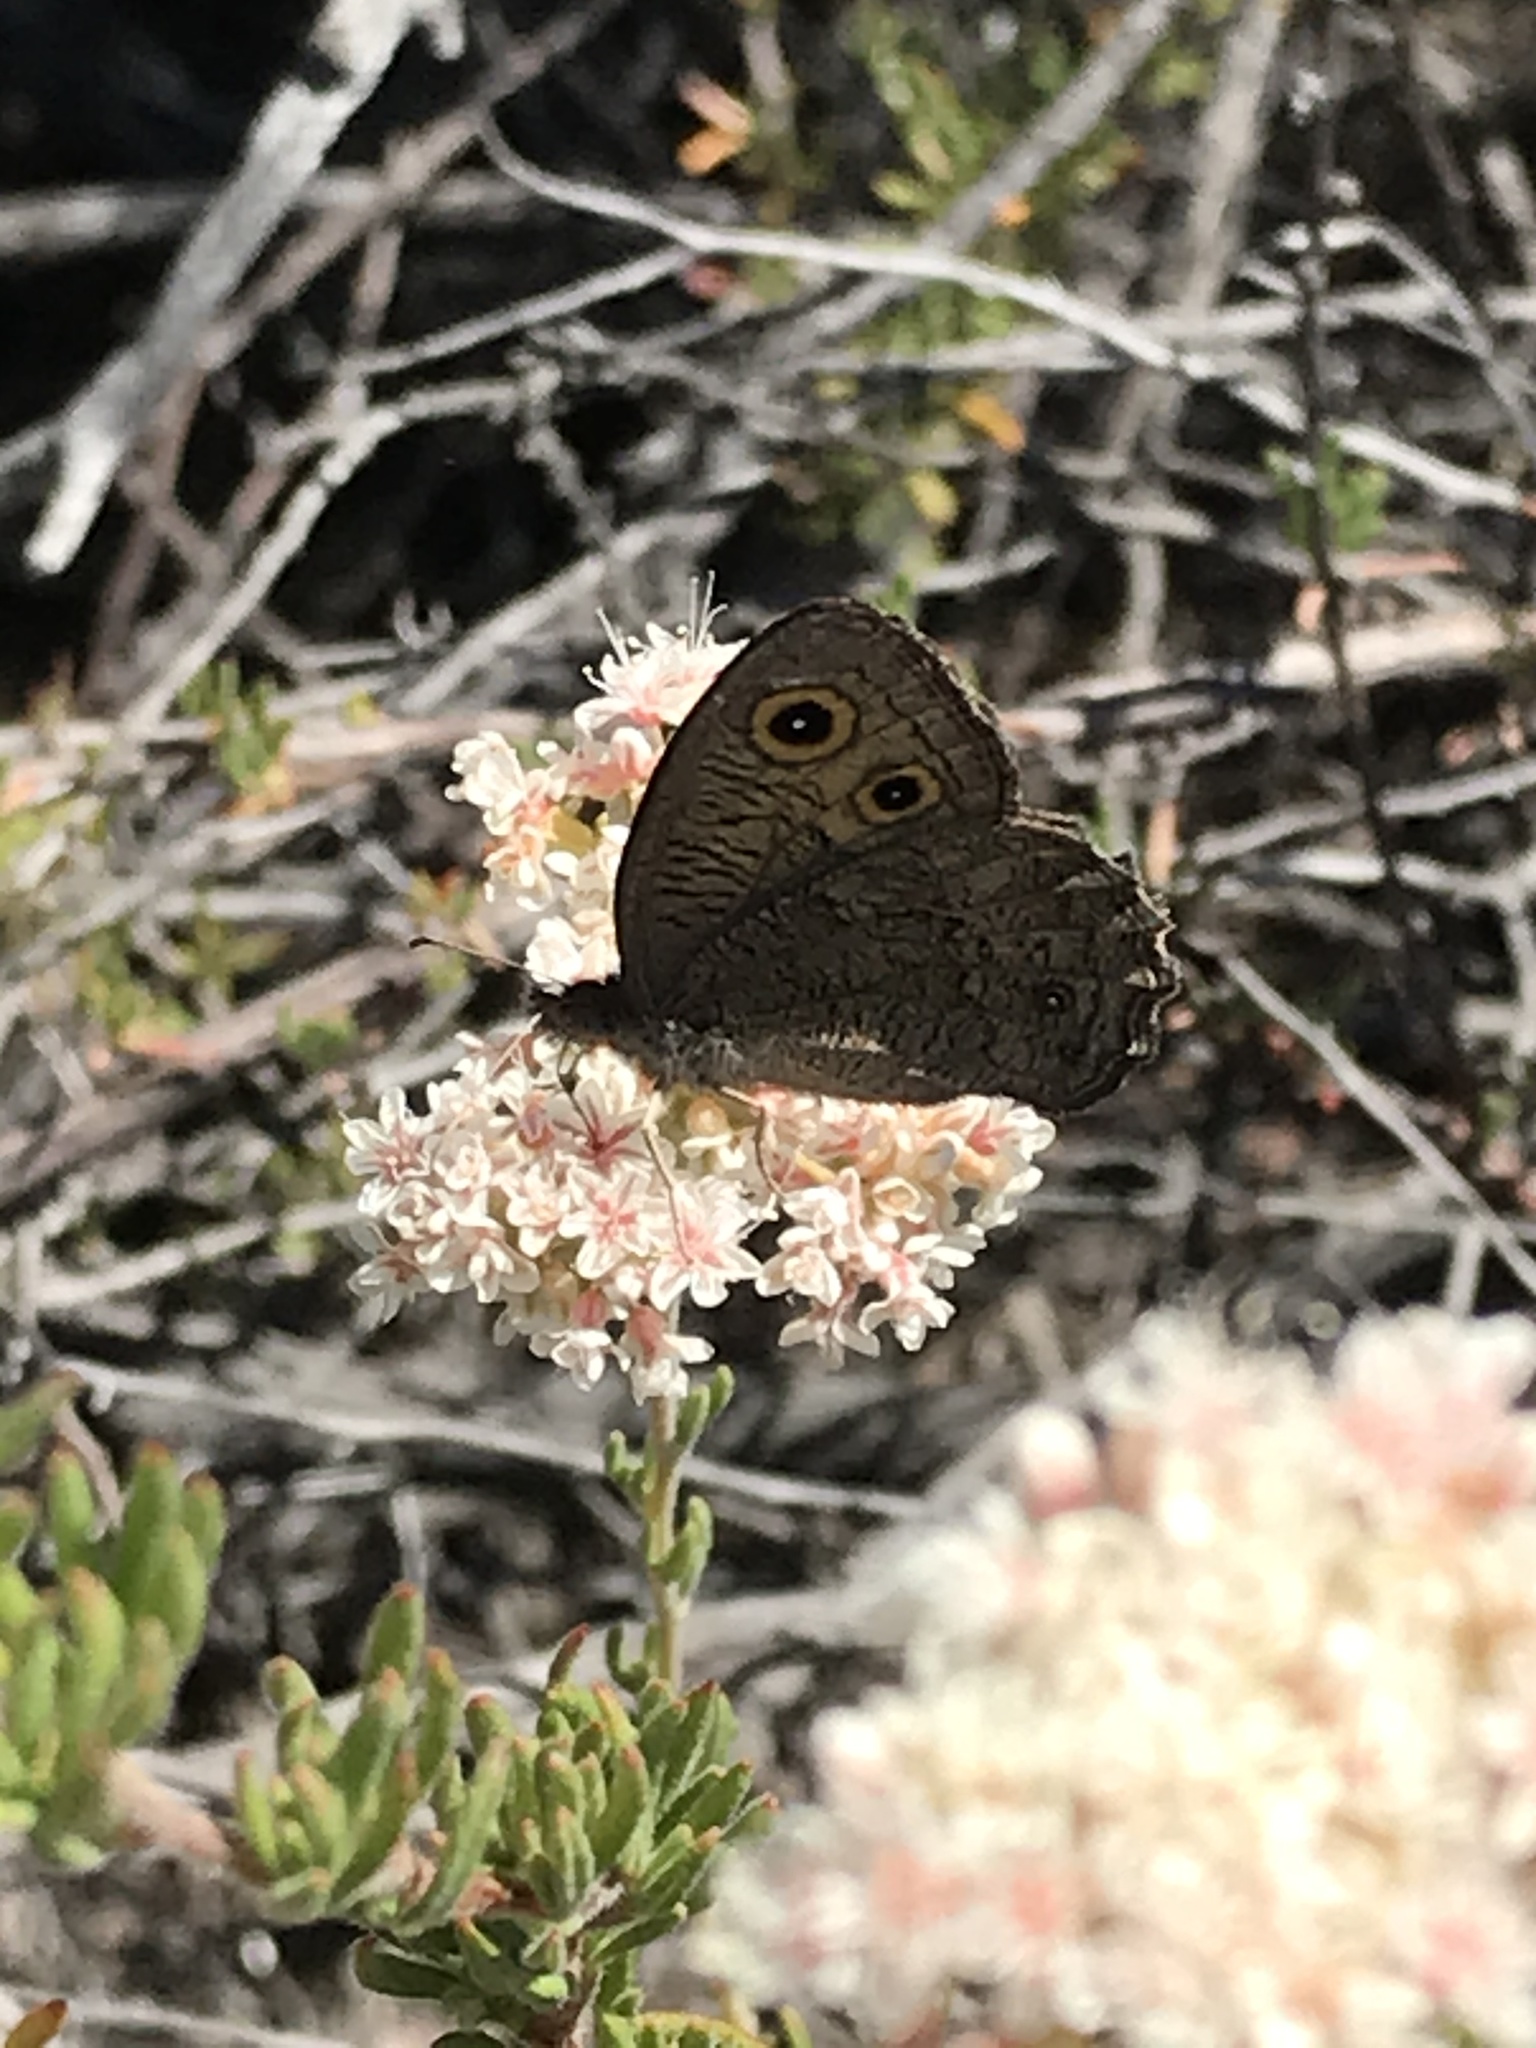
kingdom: Animalia
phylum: Arthropoda
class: Insecta
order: Lepidoptera
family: Nymphalidae
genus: Cercyonis
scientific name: Cercyonis sthenele
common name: Great basin wood-nymph
